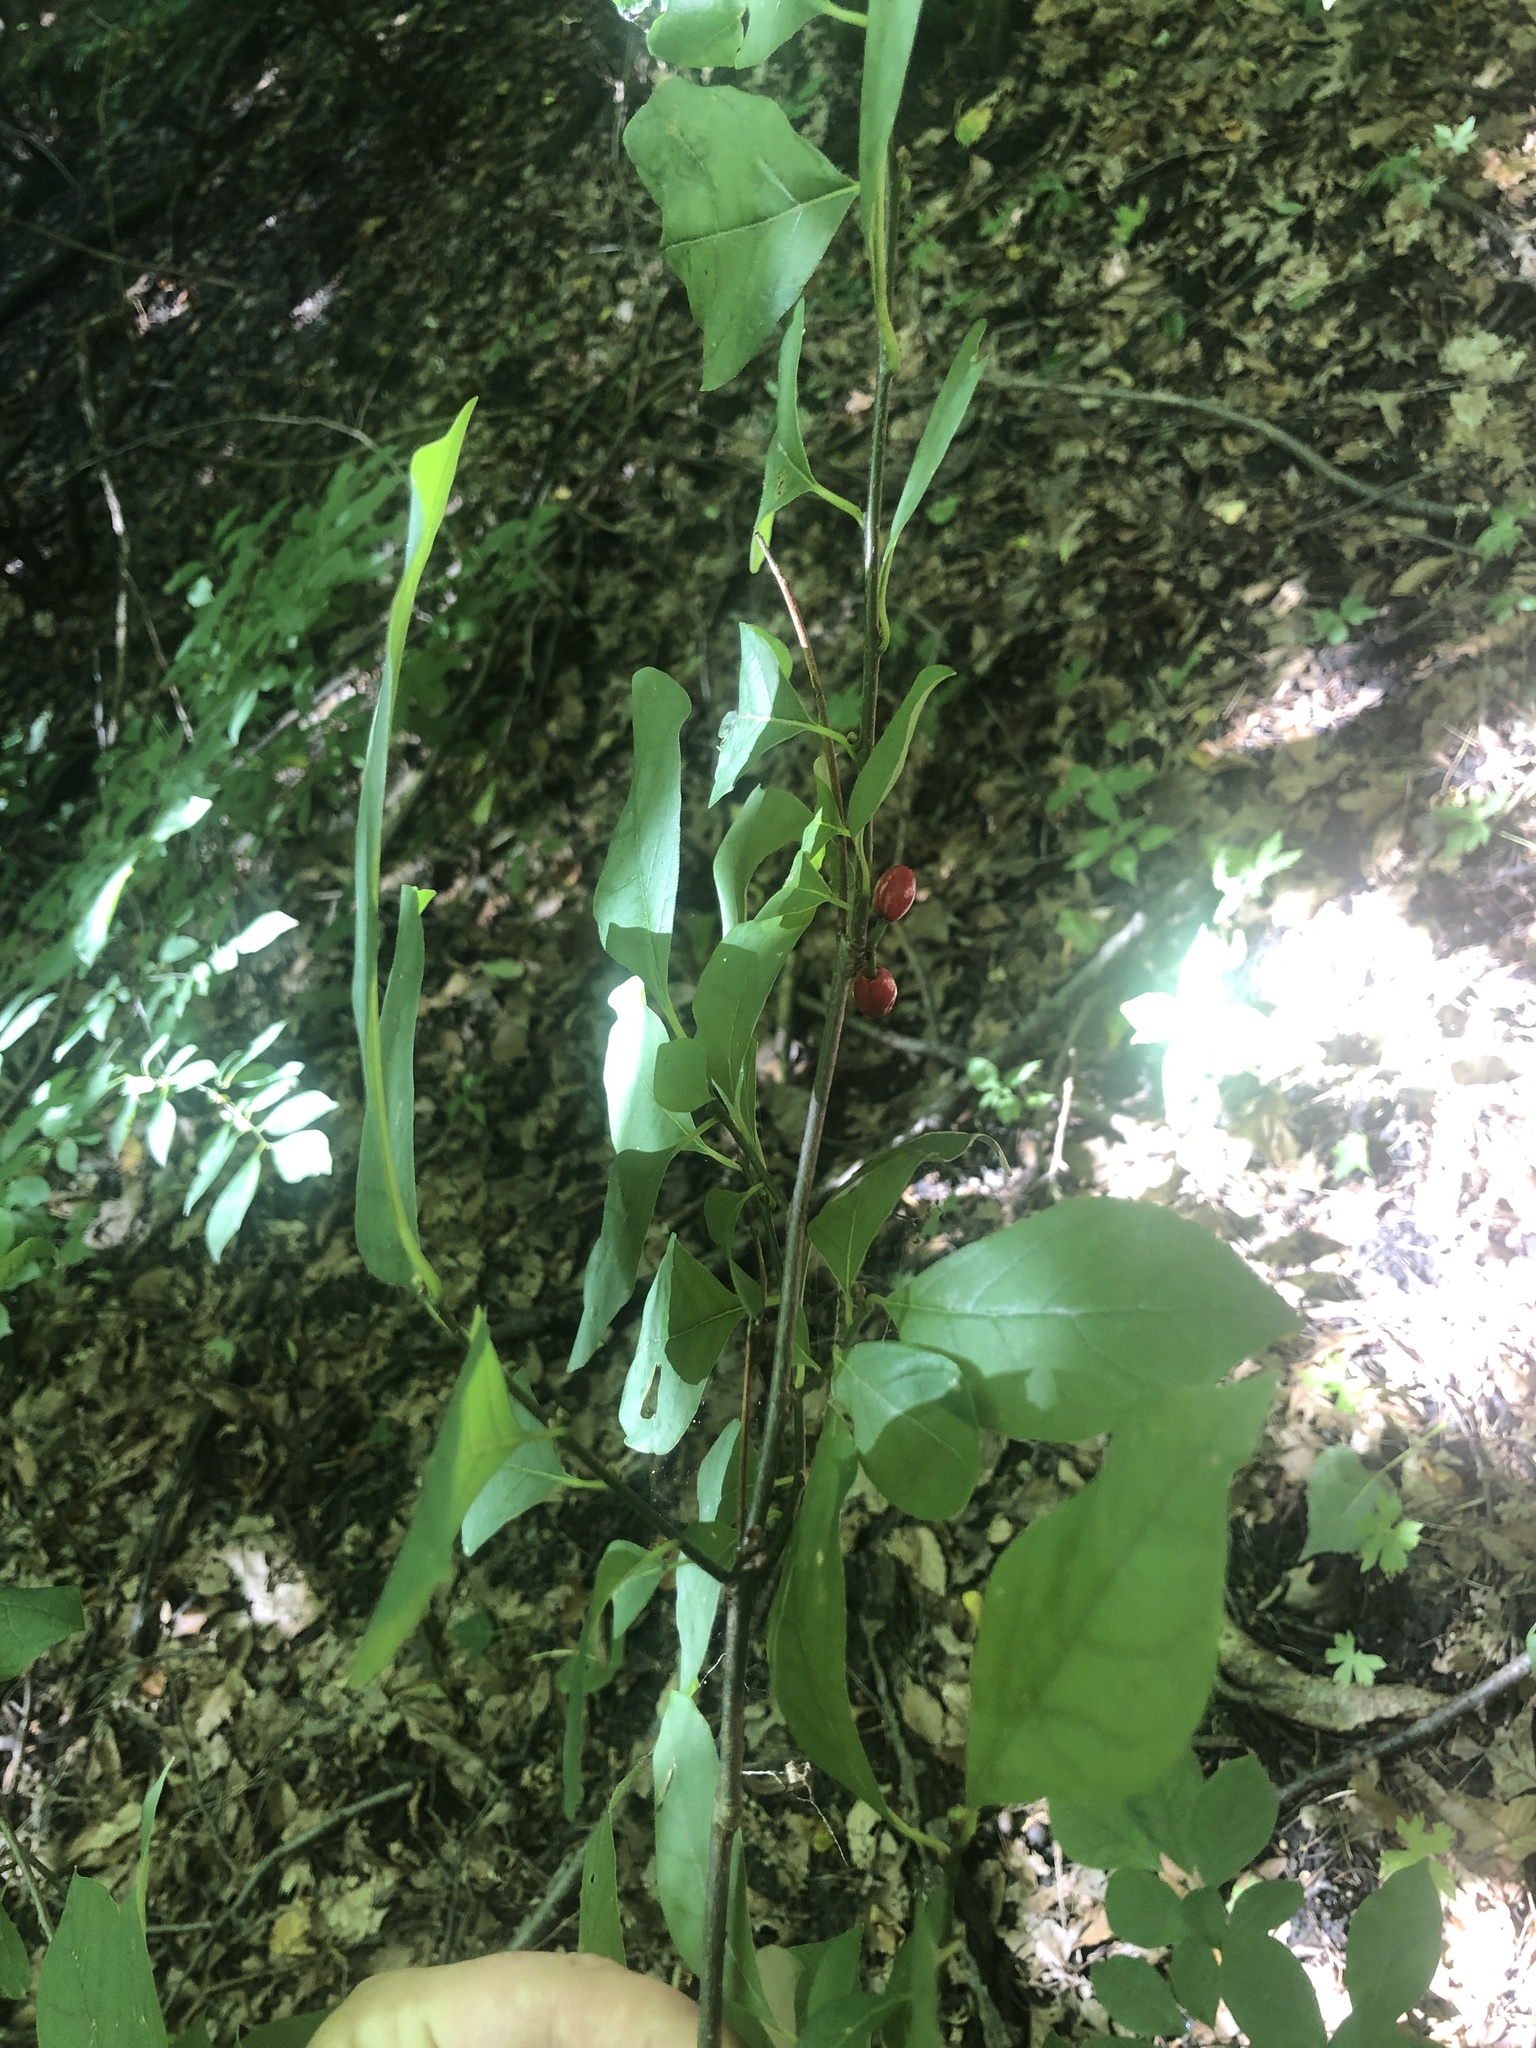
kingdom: Plantae
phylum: Tracheophyta
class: Magnoliopsida
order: Laurales
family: Lauraceae
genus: Lindera
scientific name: Lindera benzoin
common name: Spicebush
